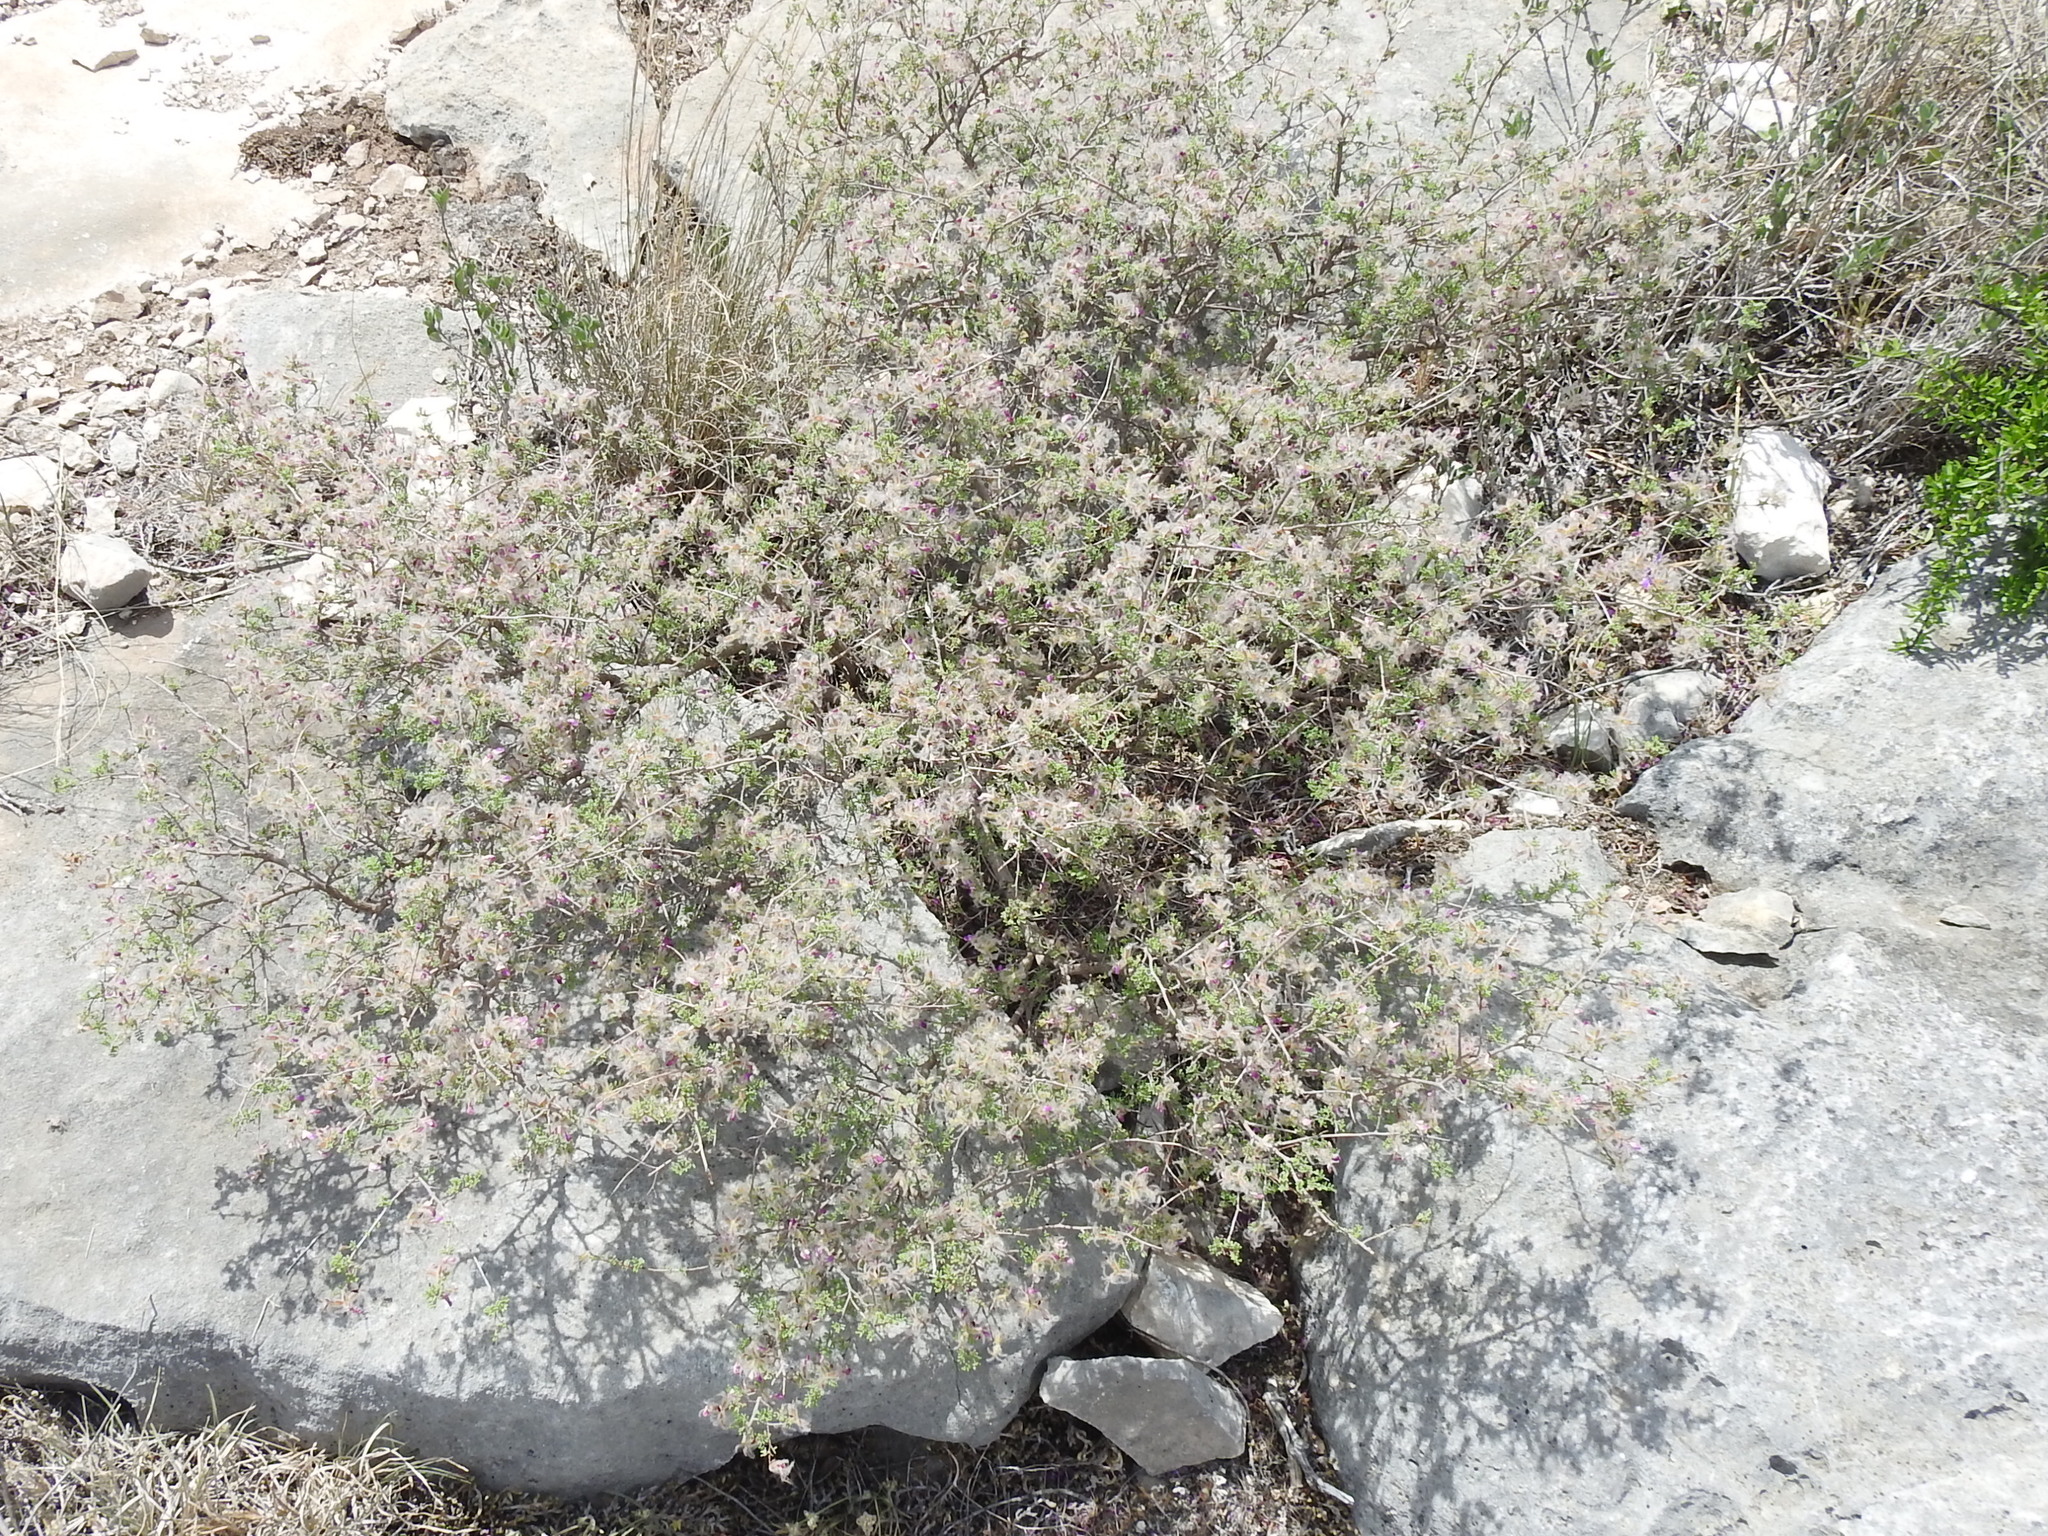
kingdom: Plantae
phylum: Tracheophyta
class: Magnoliopsida
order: Fabales
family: Fabaceae
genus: Dalea
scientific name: Dalea formosa
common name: Feather-plume dalea
